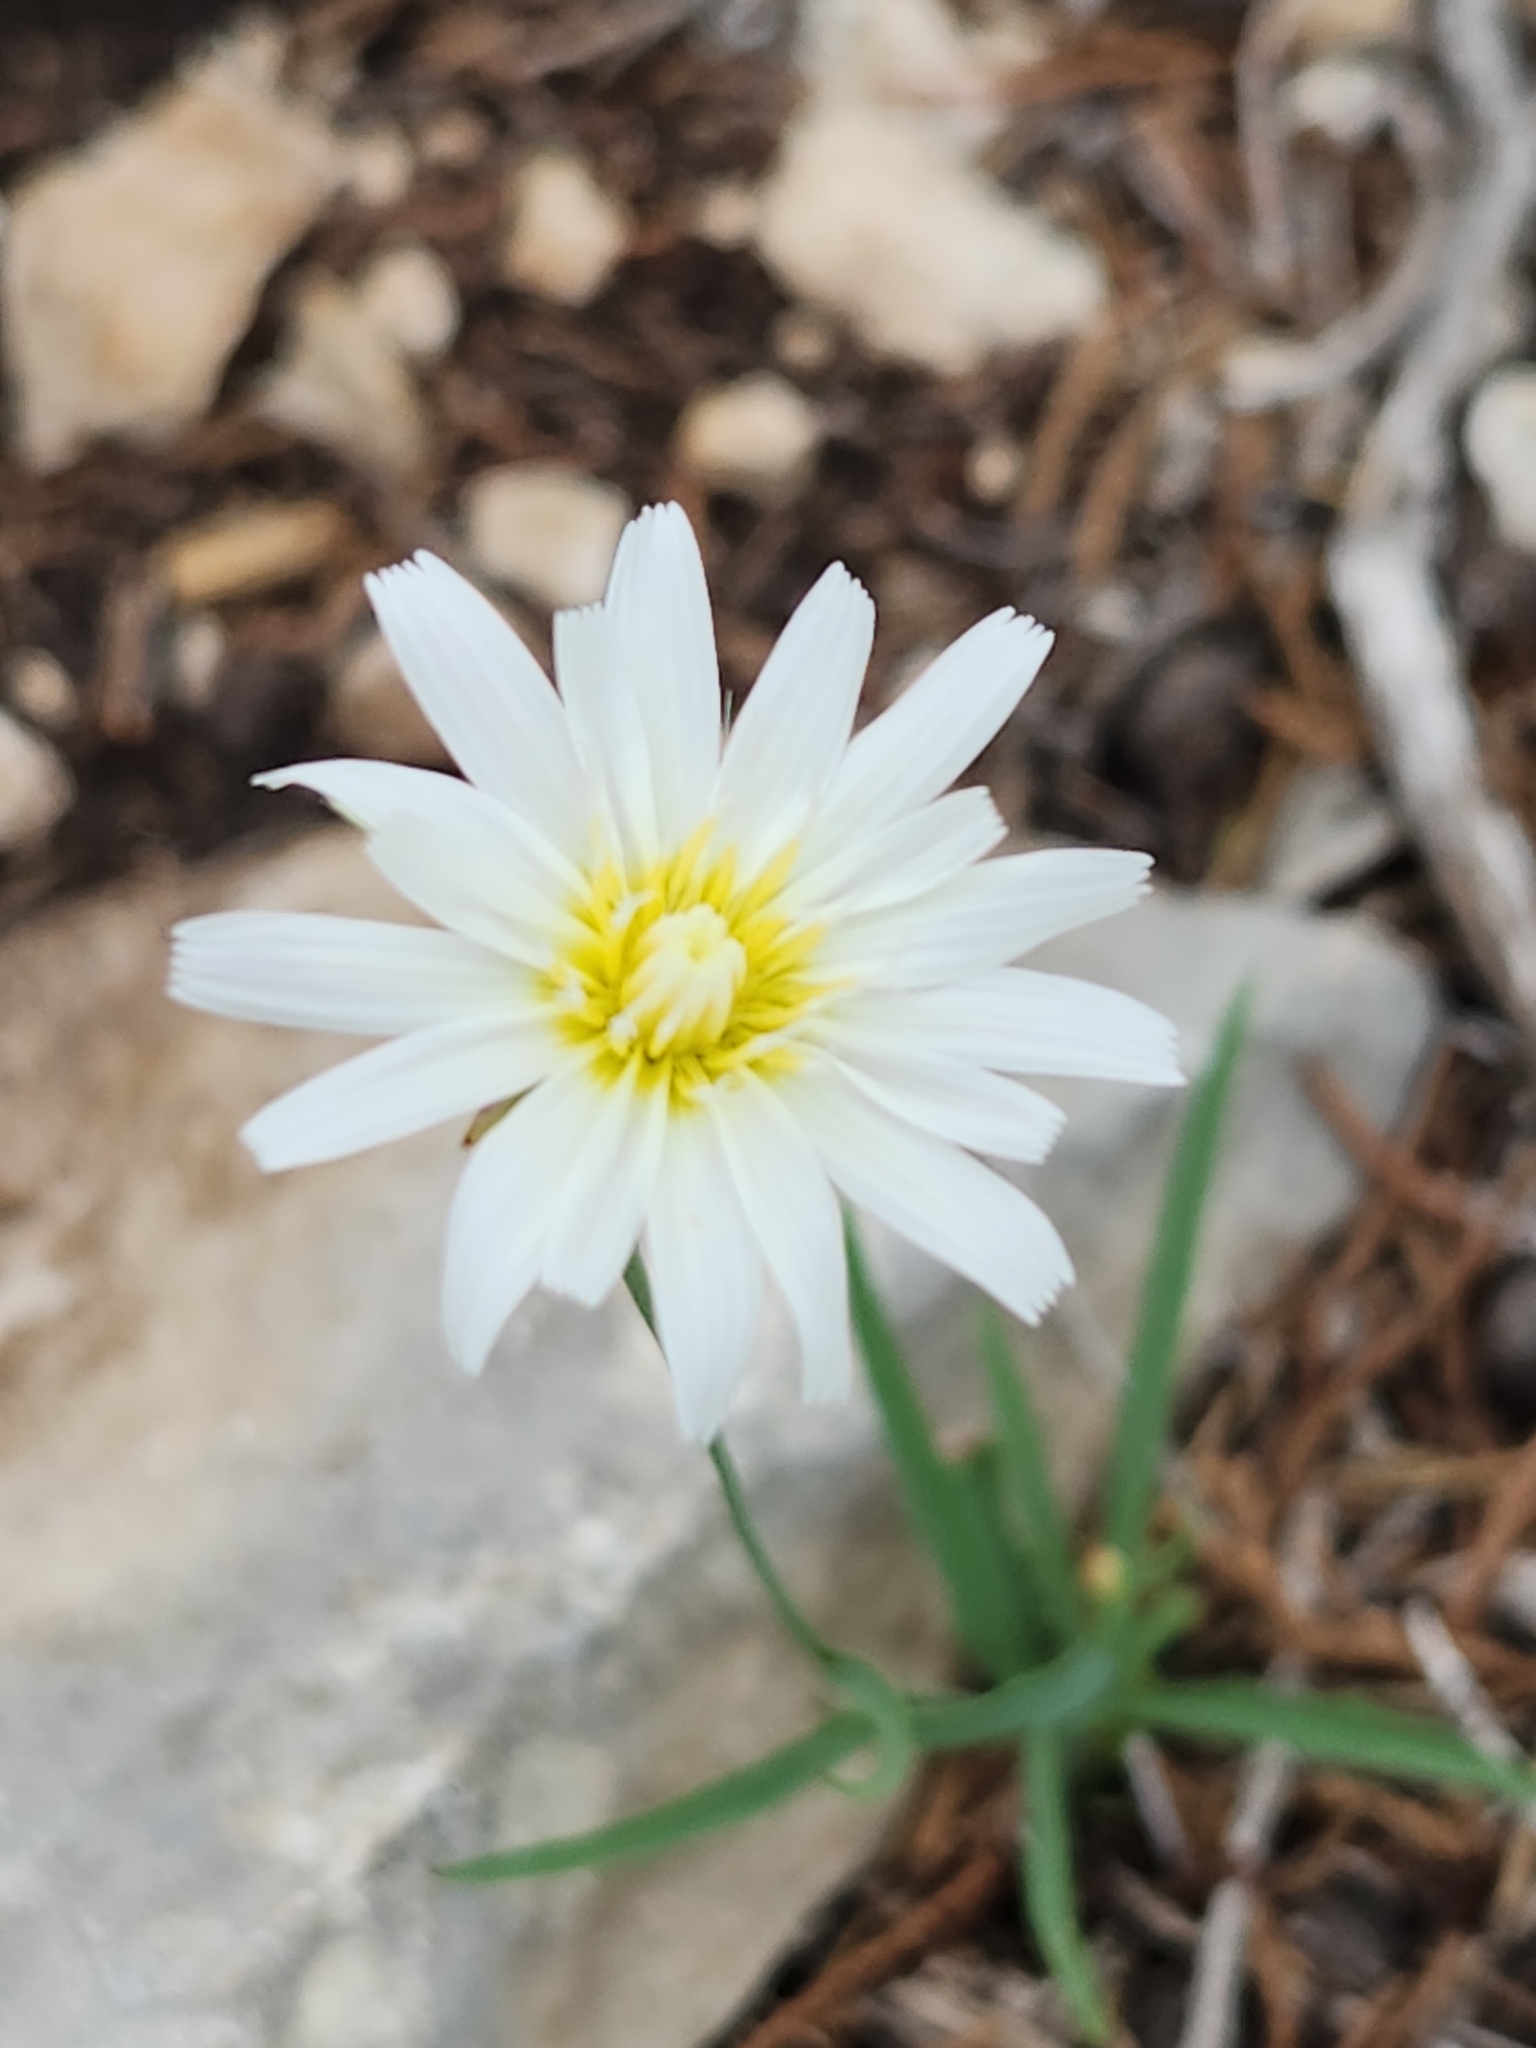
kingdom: Plantae
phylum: Tracheophyta
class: Magnoliopsida
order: Asterales
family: Asteraceae
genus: Pinaropappus
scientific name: Pinaropappus roseus
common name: Rock-lettuce
